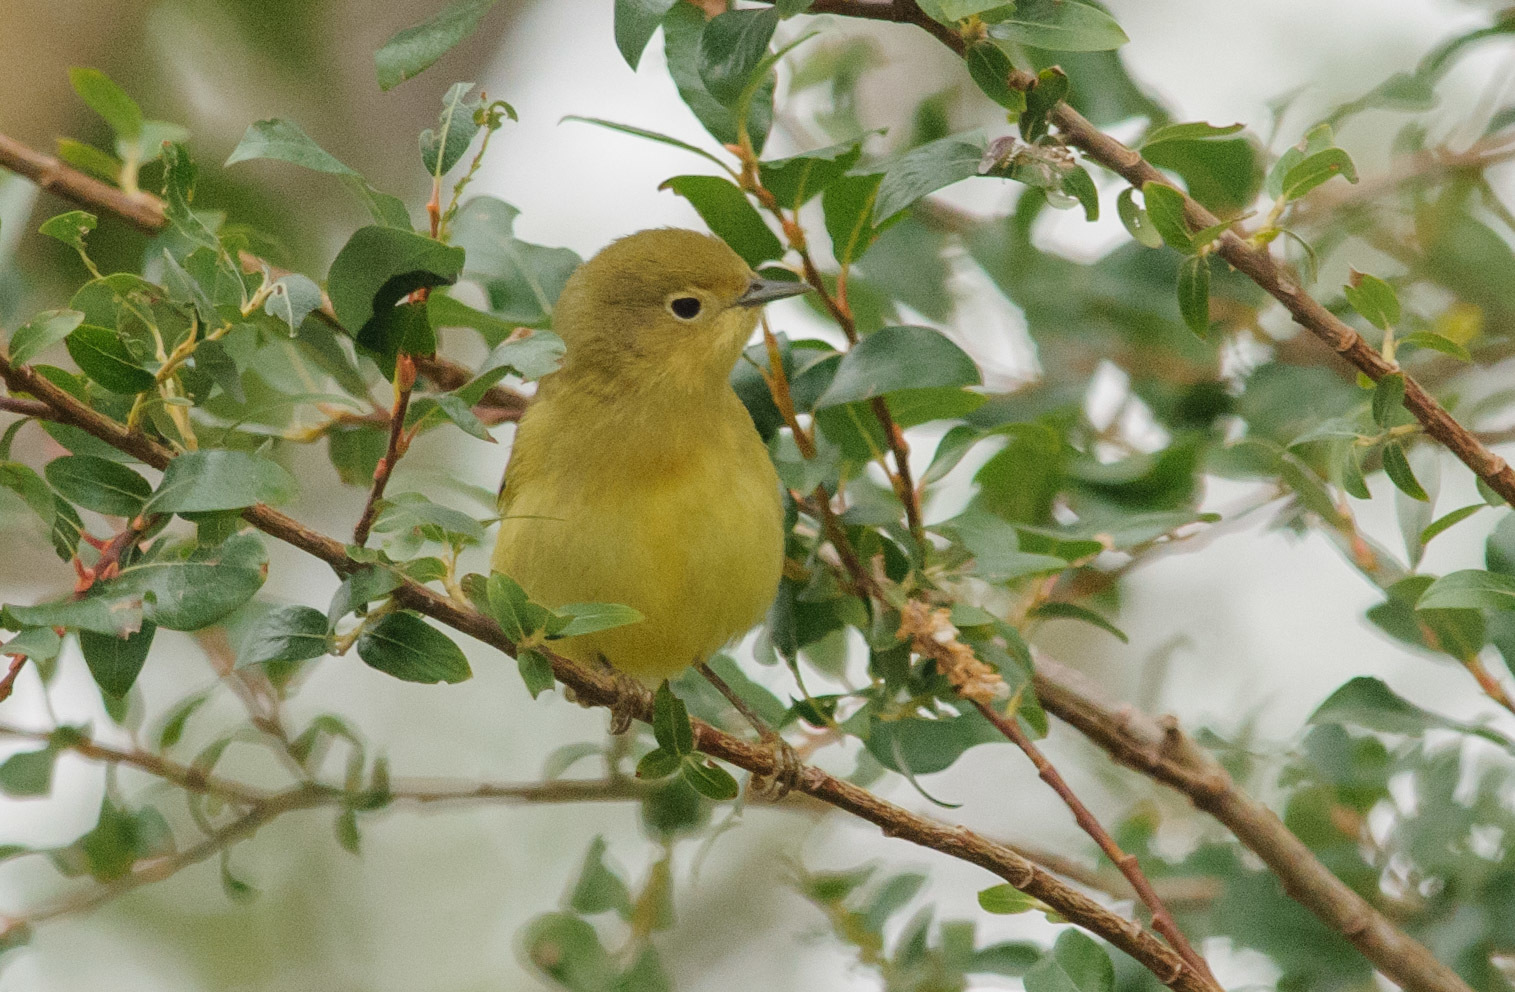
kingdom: Animalia
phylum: Chordata
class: Aves
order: Passeriformes
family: Parulidae
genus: Setophaga
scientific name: Setophaga petechia
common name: Yellow warbler
